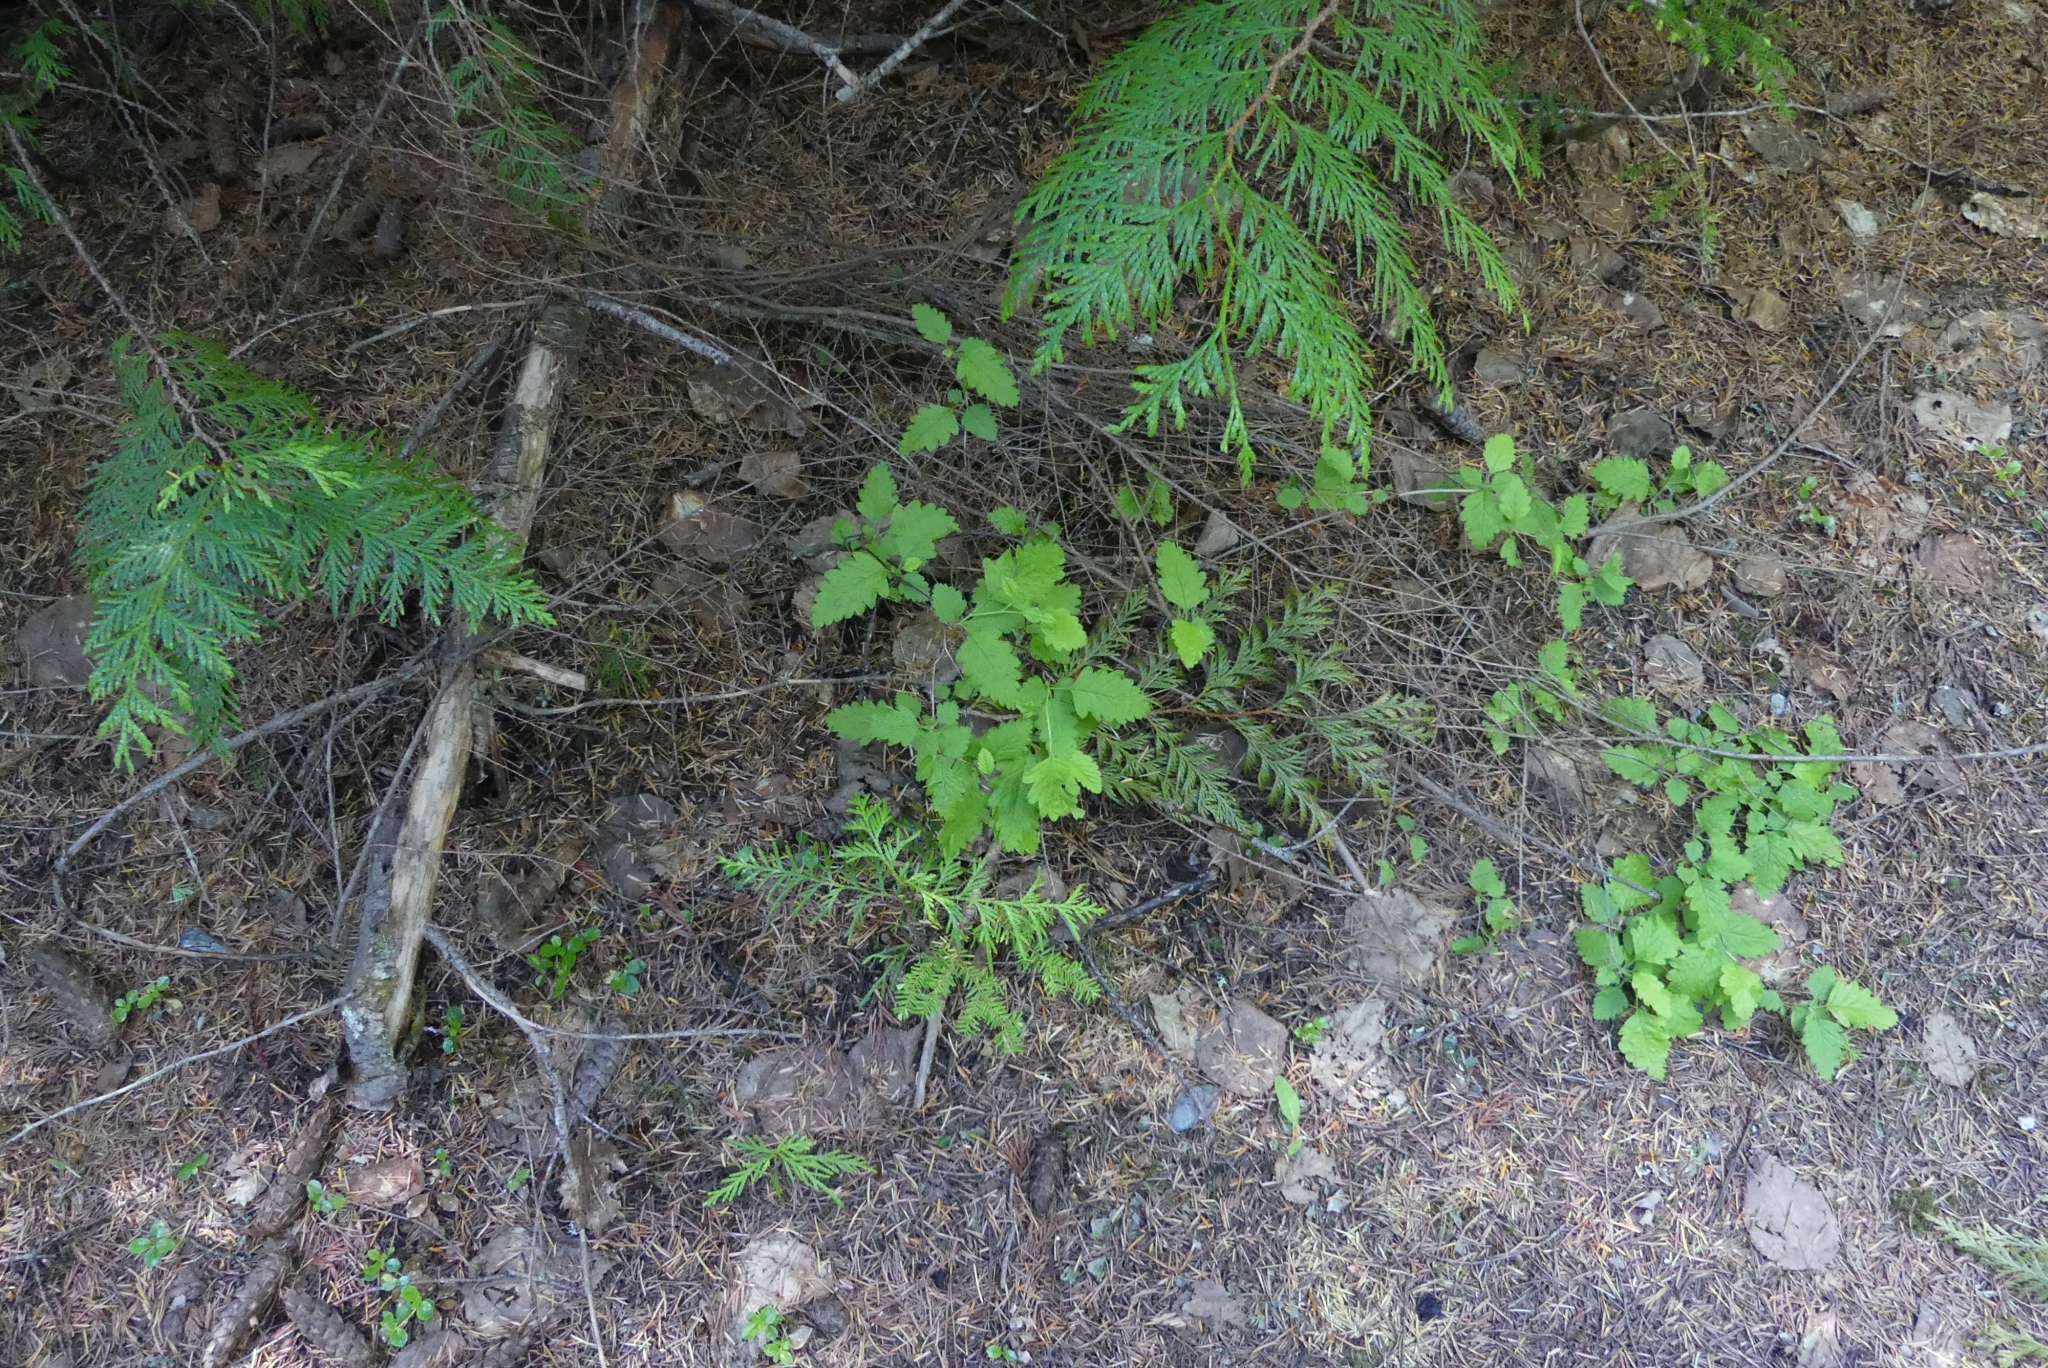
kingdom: Plantae
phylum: Tracheophyta
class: Magnoliopsida
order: Rosales
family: Rosaceae
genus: Holodiscus
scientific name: Holodiscus discolor
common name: Oceanspray
